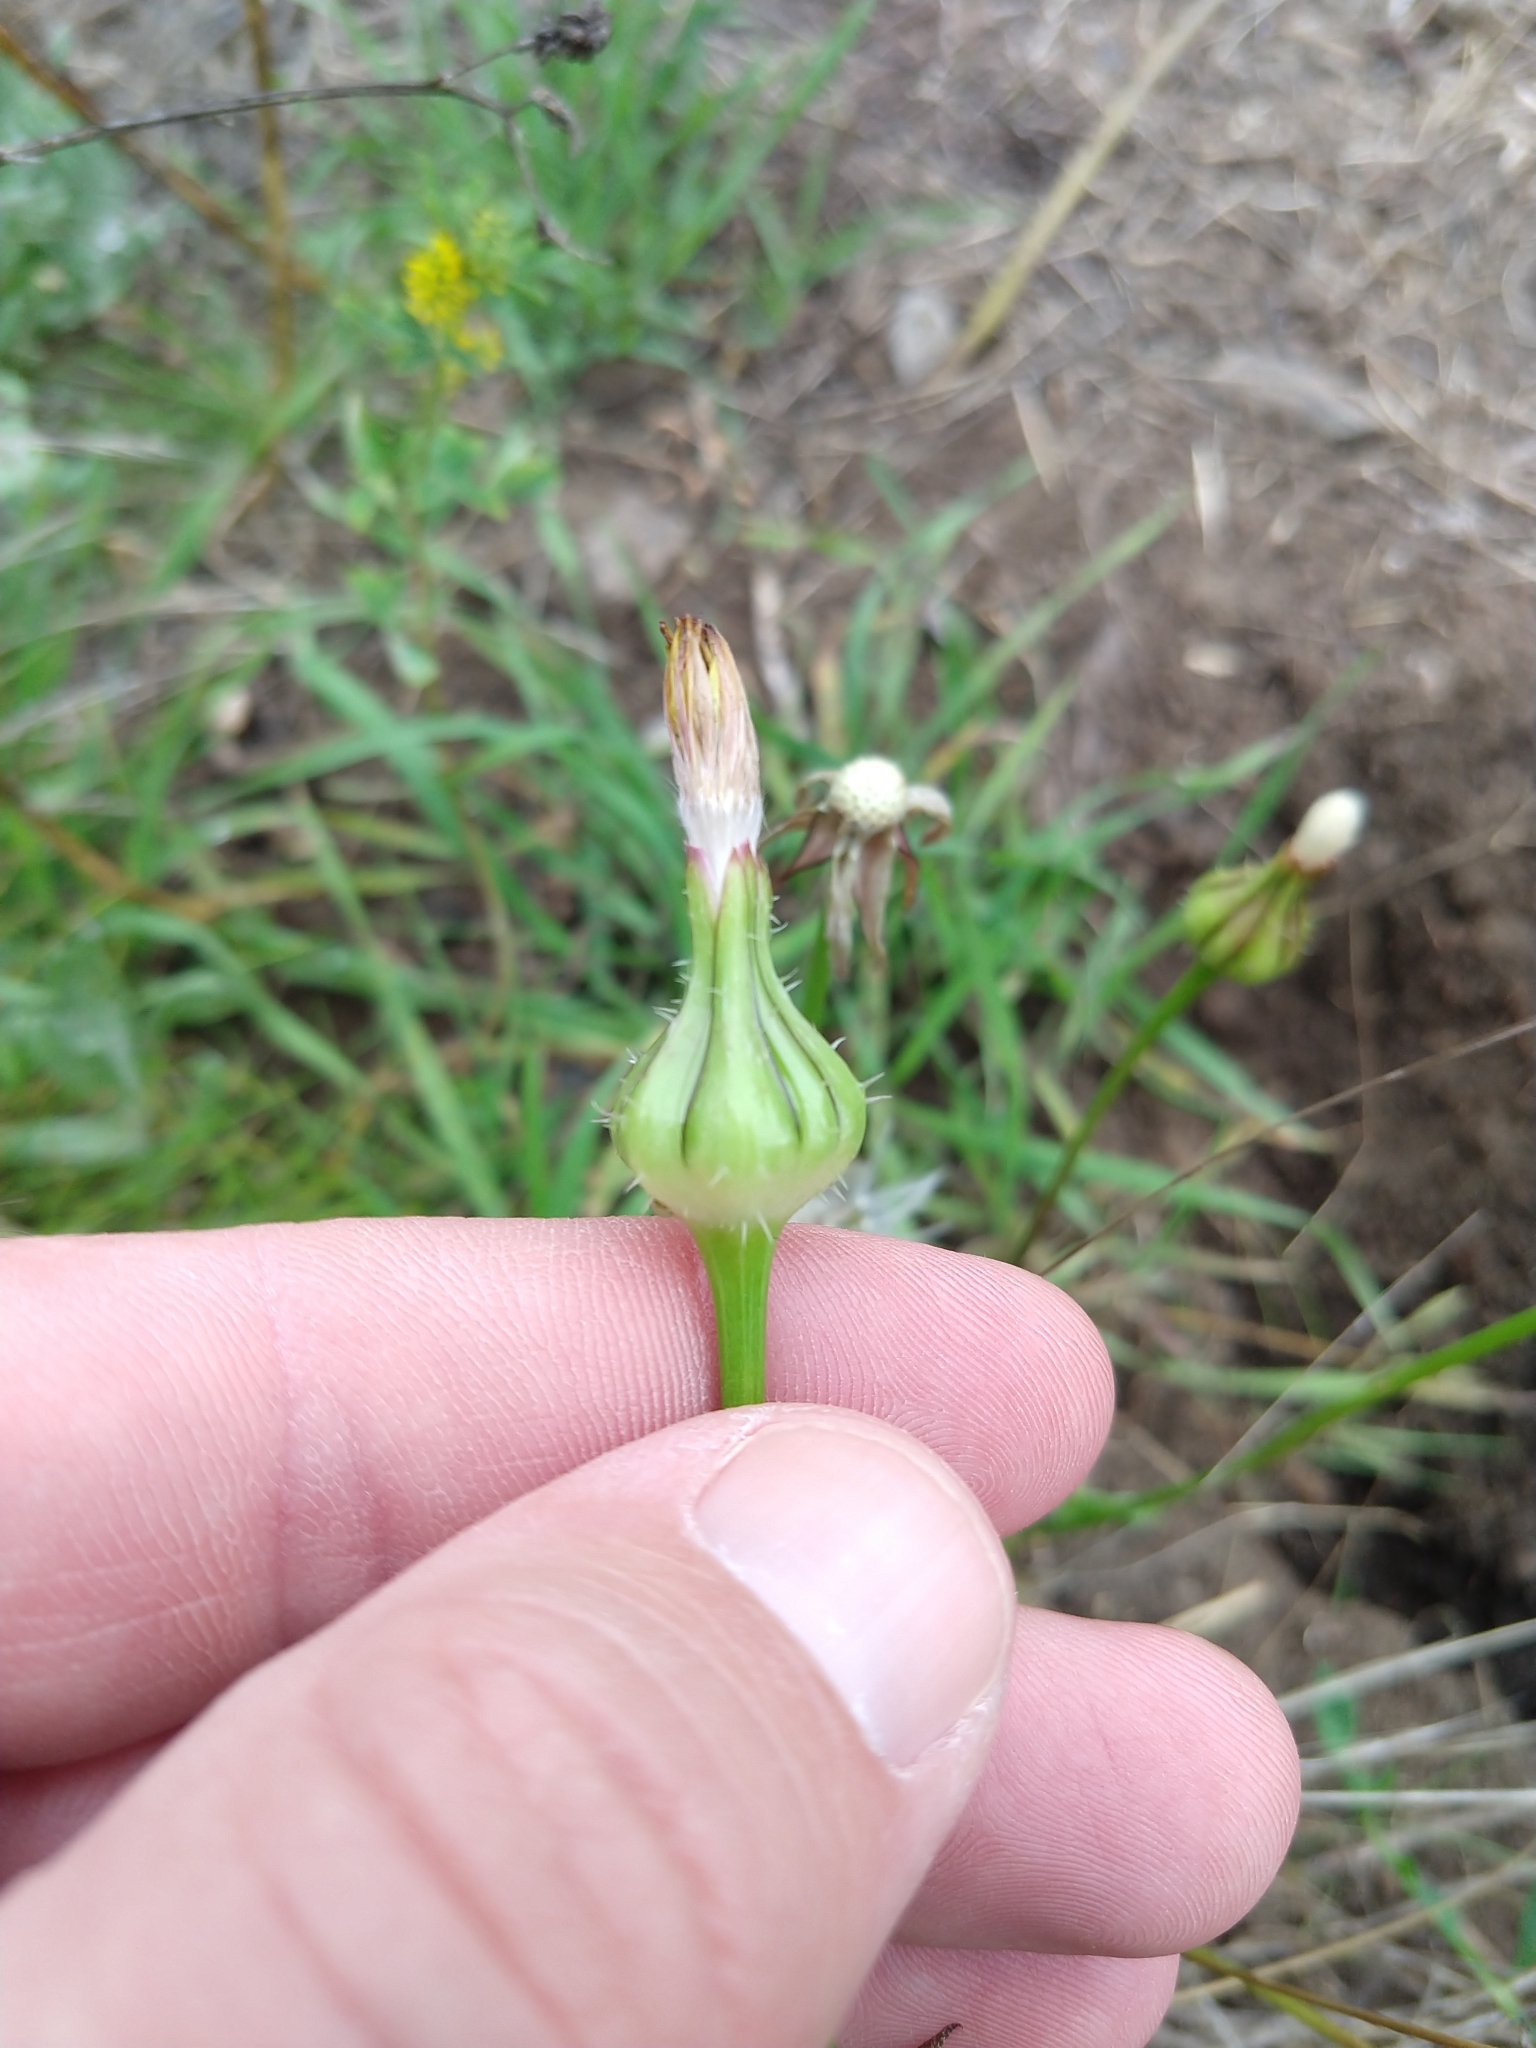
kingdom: Plantae
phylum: Tracheophyta
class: Magnoliopsida
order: Asterales
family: Asteraceae
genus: Urospermum
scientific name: Urospermum picroides
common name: False hawkbit
